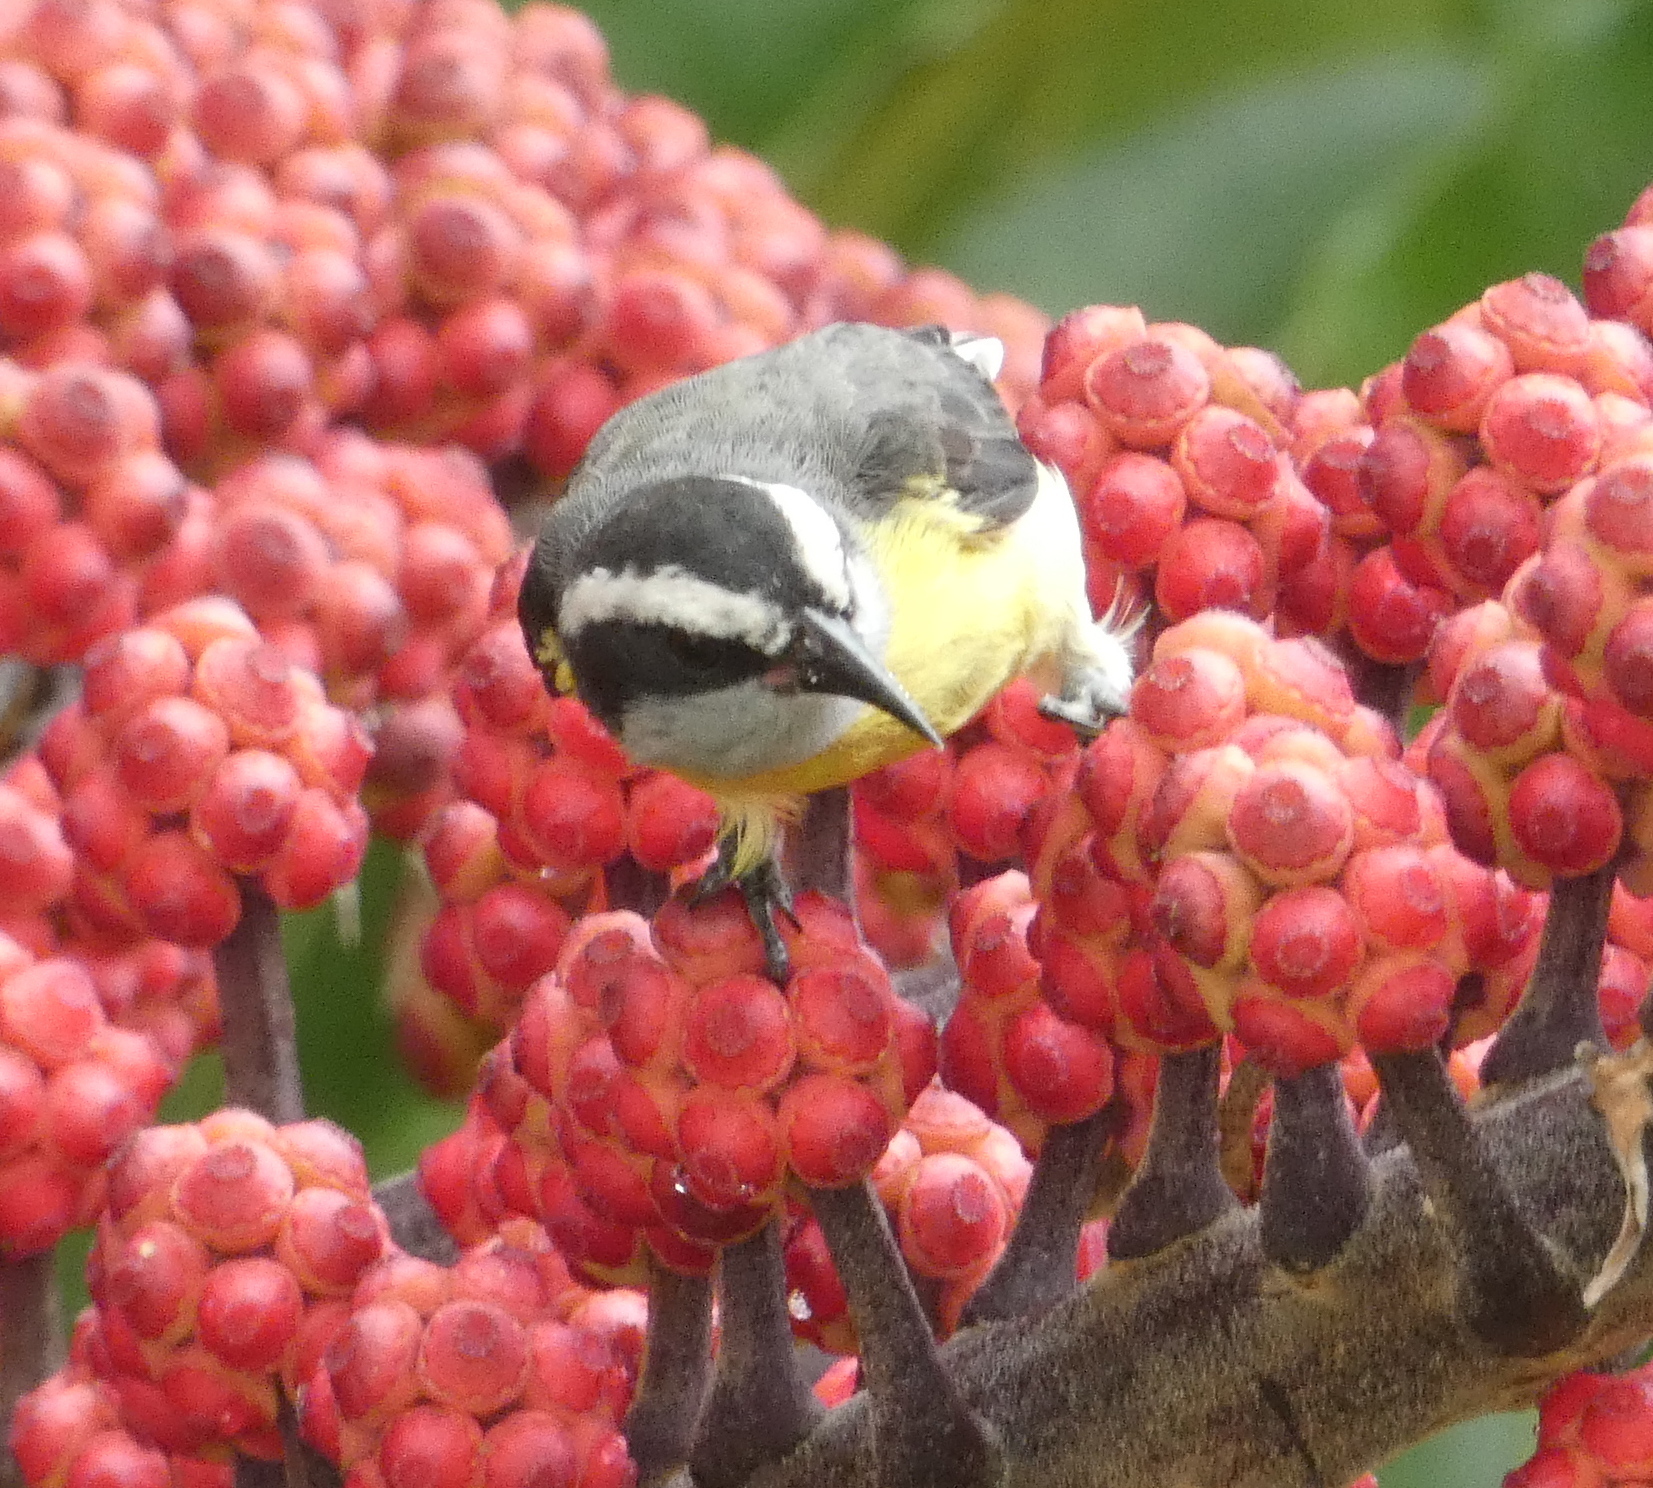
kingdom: Animalia
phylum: Chordata
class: Aves
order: Passeriformes
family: Thraupidae
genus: Coereba
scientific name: Coereba flaveola
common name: Bananaquit
